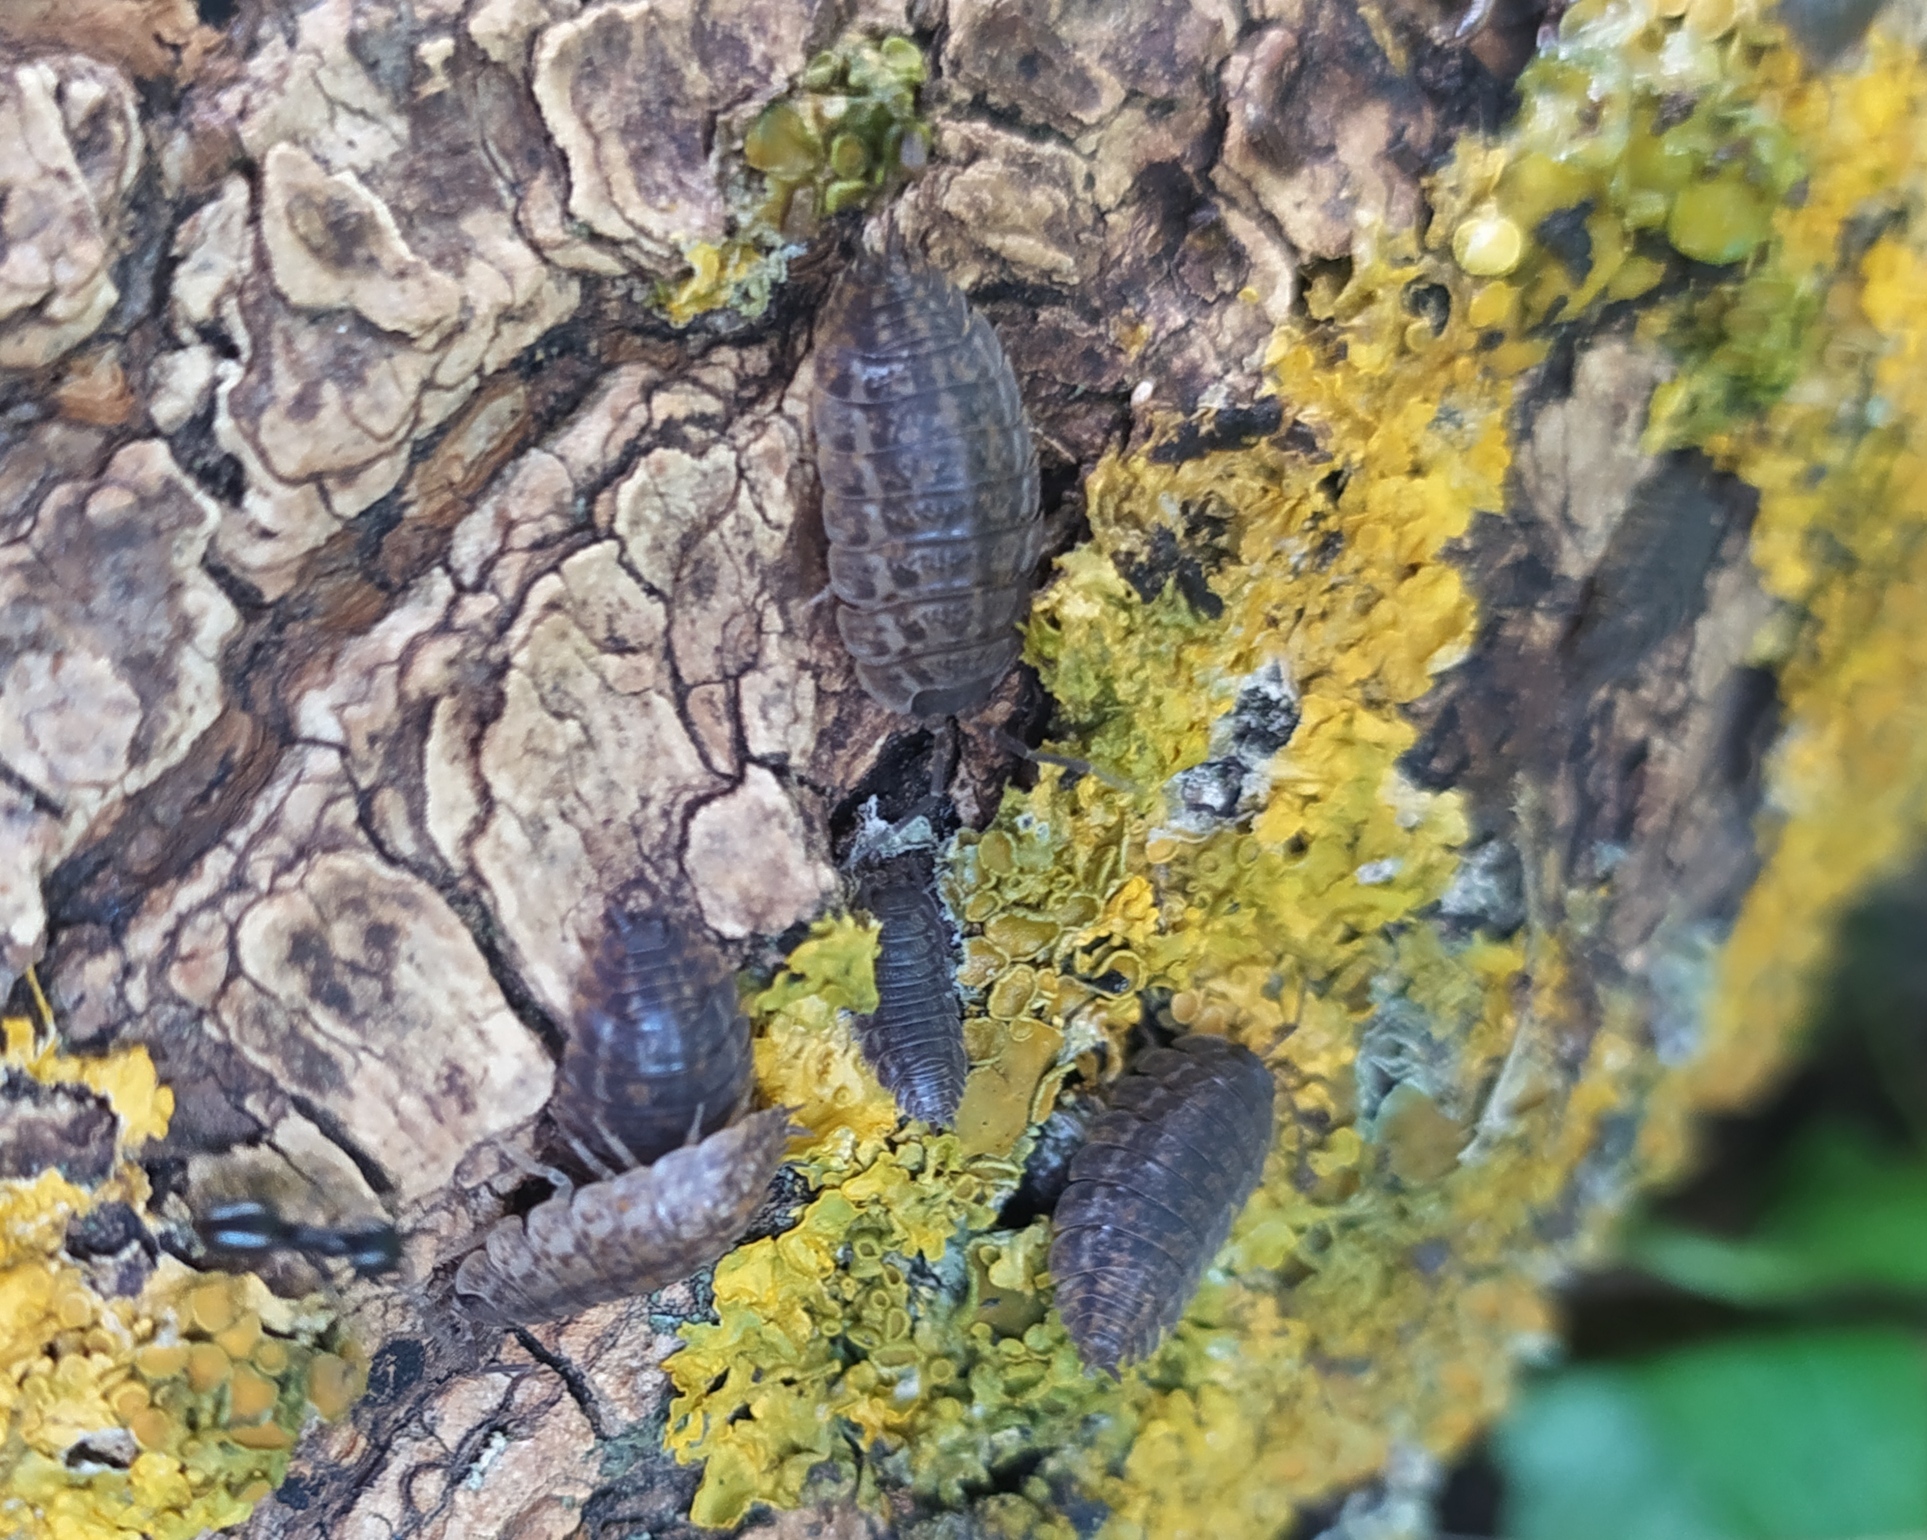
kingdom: Animalia
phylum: Arthropoda
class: Malacostraca
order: Isopoda
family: Trachelipodidae
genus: Trachelipus
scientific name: Trachelipus rathkii
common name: Isopod
